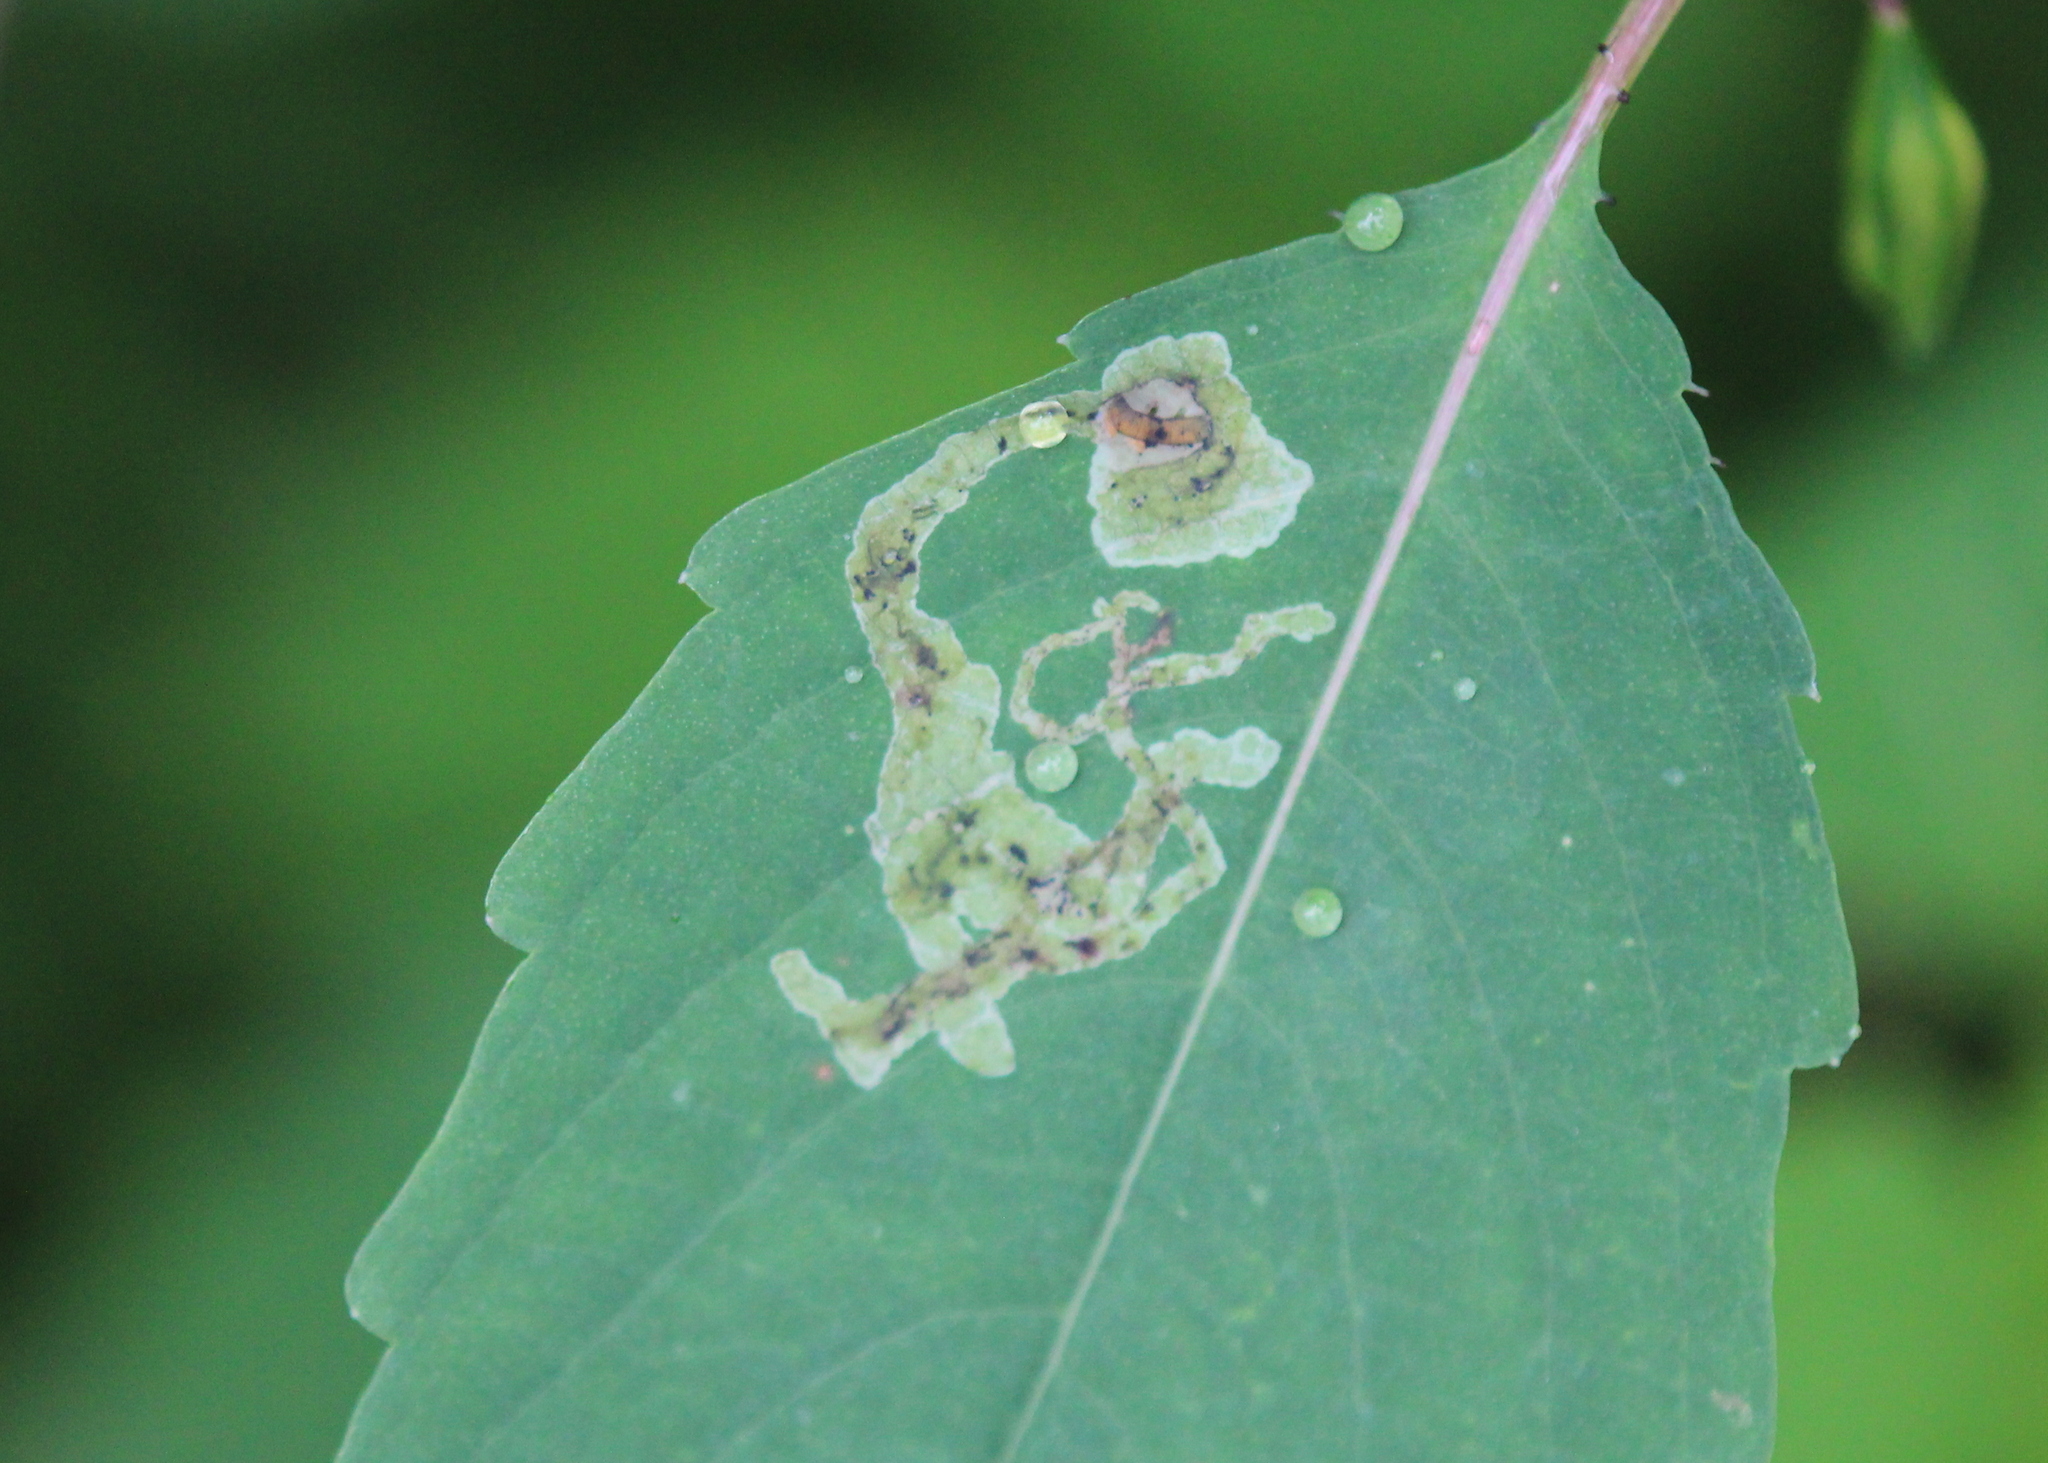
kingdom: Animalia
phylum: Arthropoda
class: Insecta
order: Diptera
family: Agromyzidae
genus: Phytoliriomyza
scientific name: Phytoliriomyza melampyga
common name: Jewelweed leaf-miner fly
